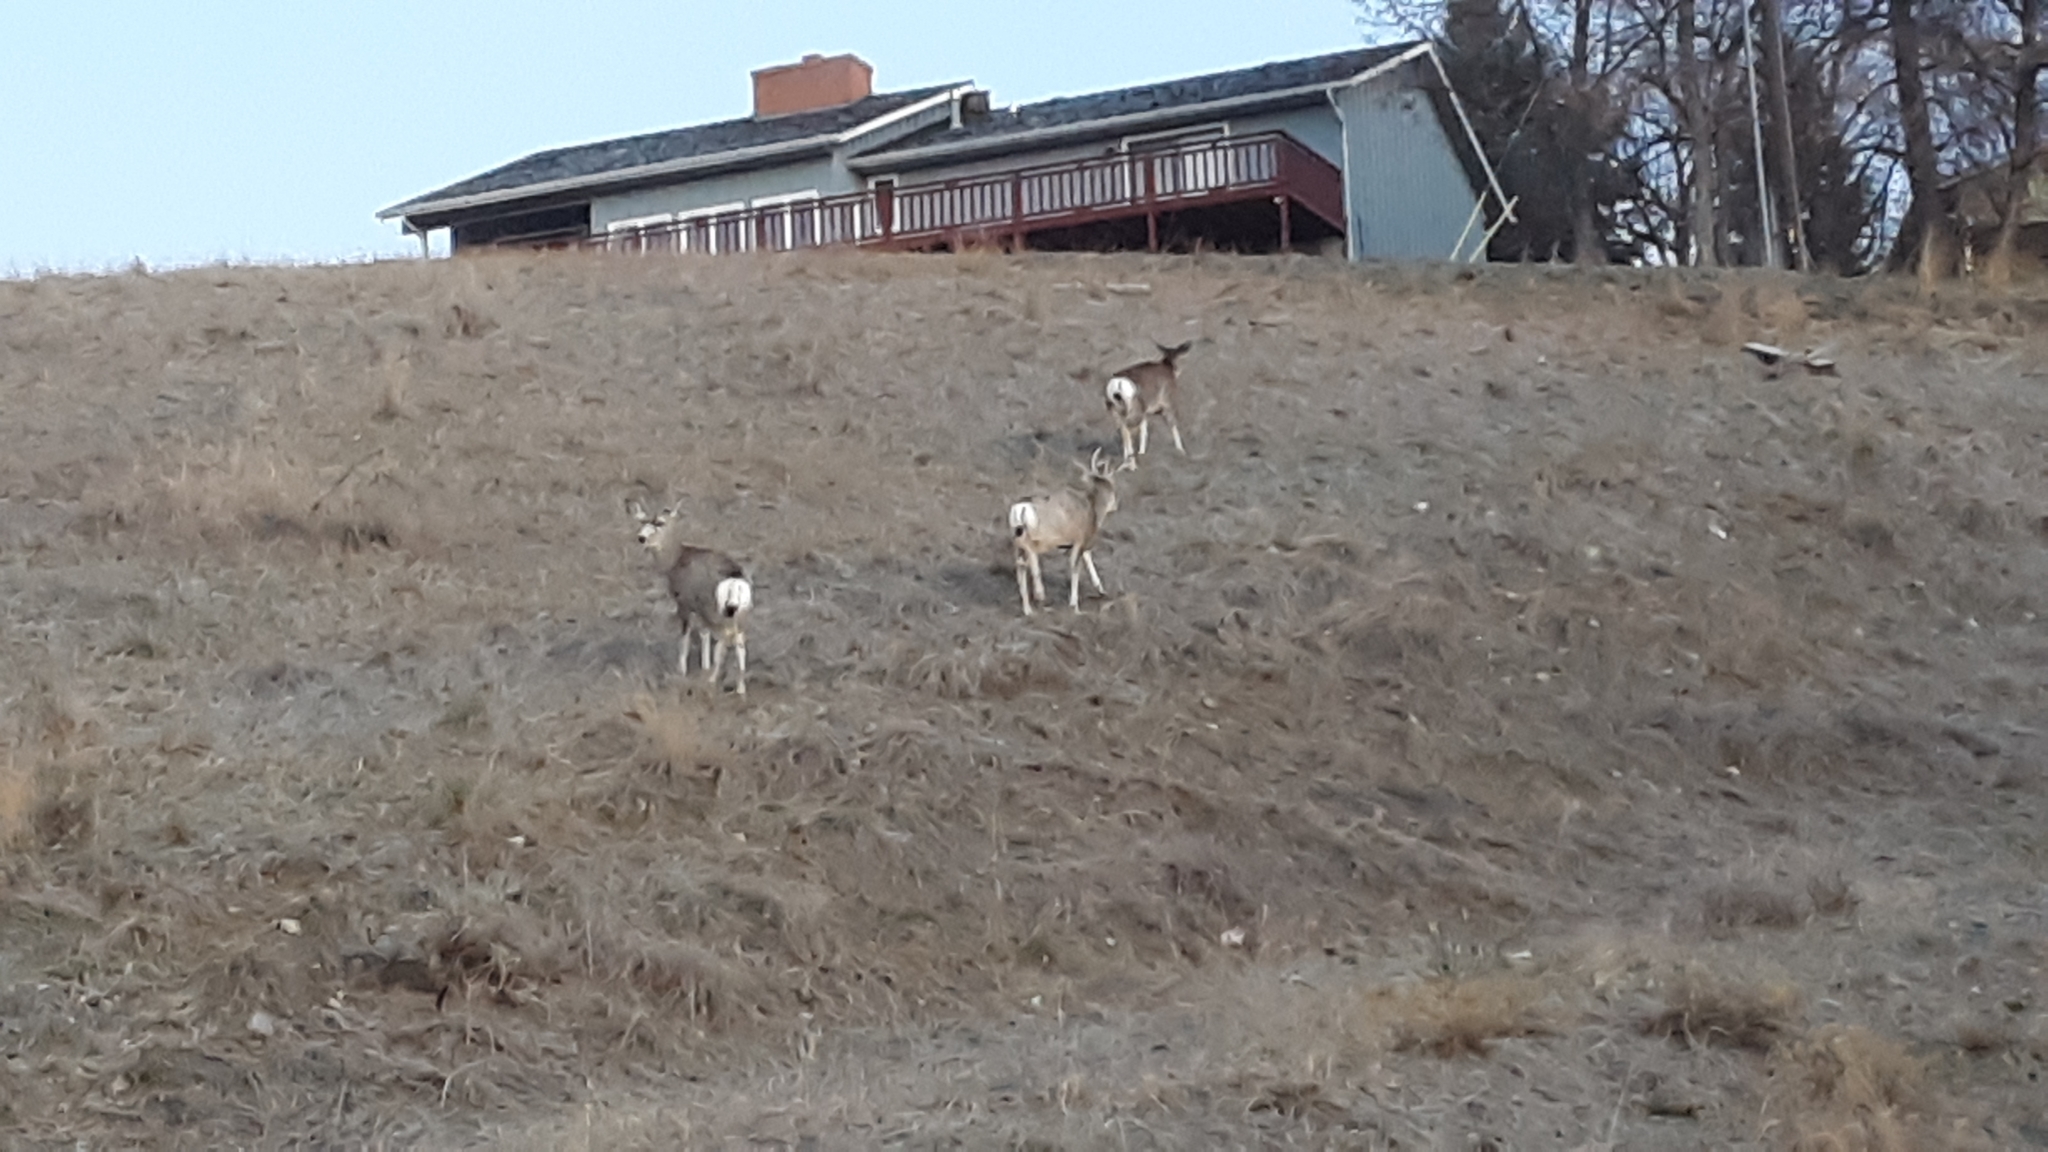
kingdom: Animalia
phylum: Chordata
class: Mammalia
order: Artiodactyla
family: Cervidae
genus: Odocoileus
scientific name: Odocoileus hemionus
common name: Mule deer
